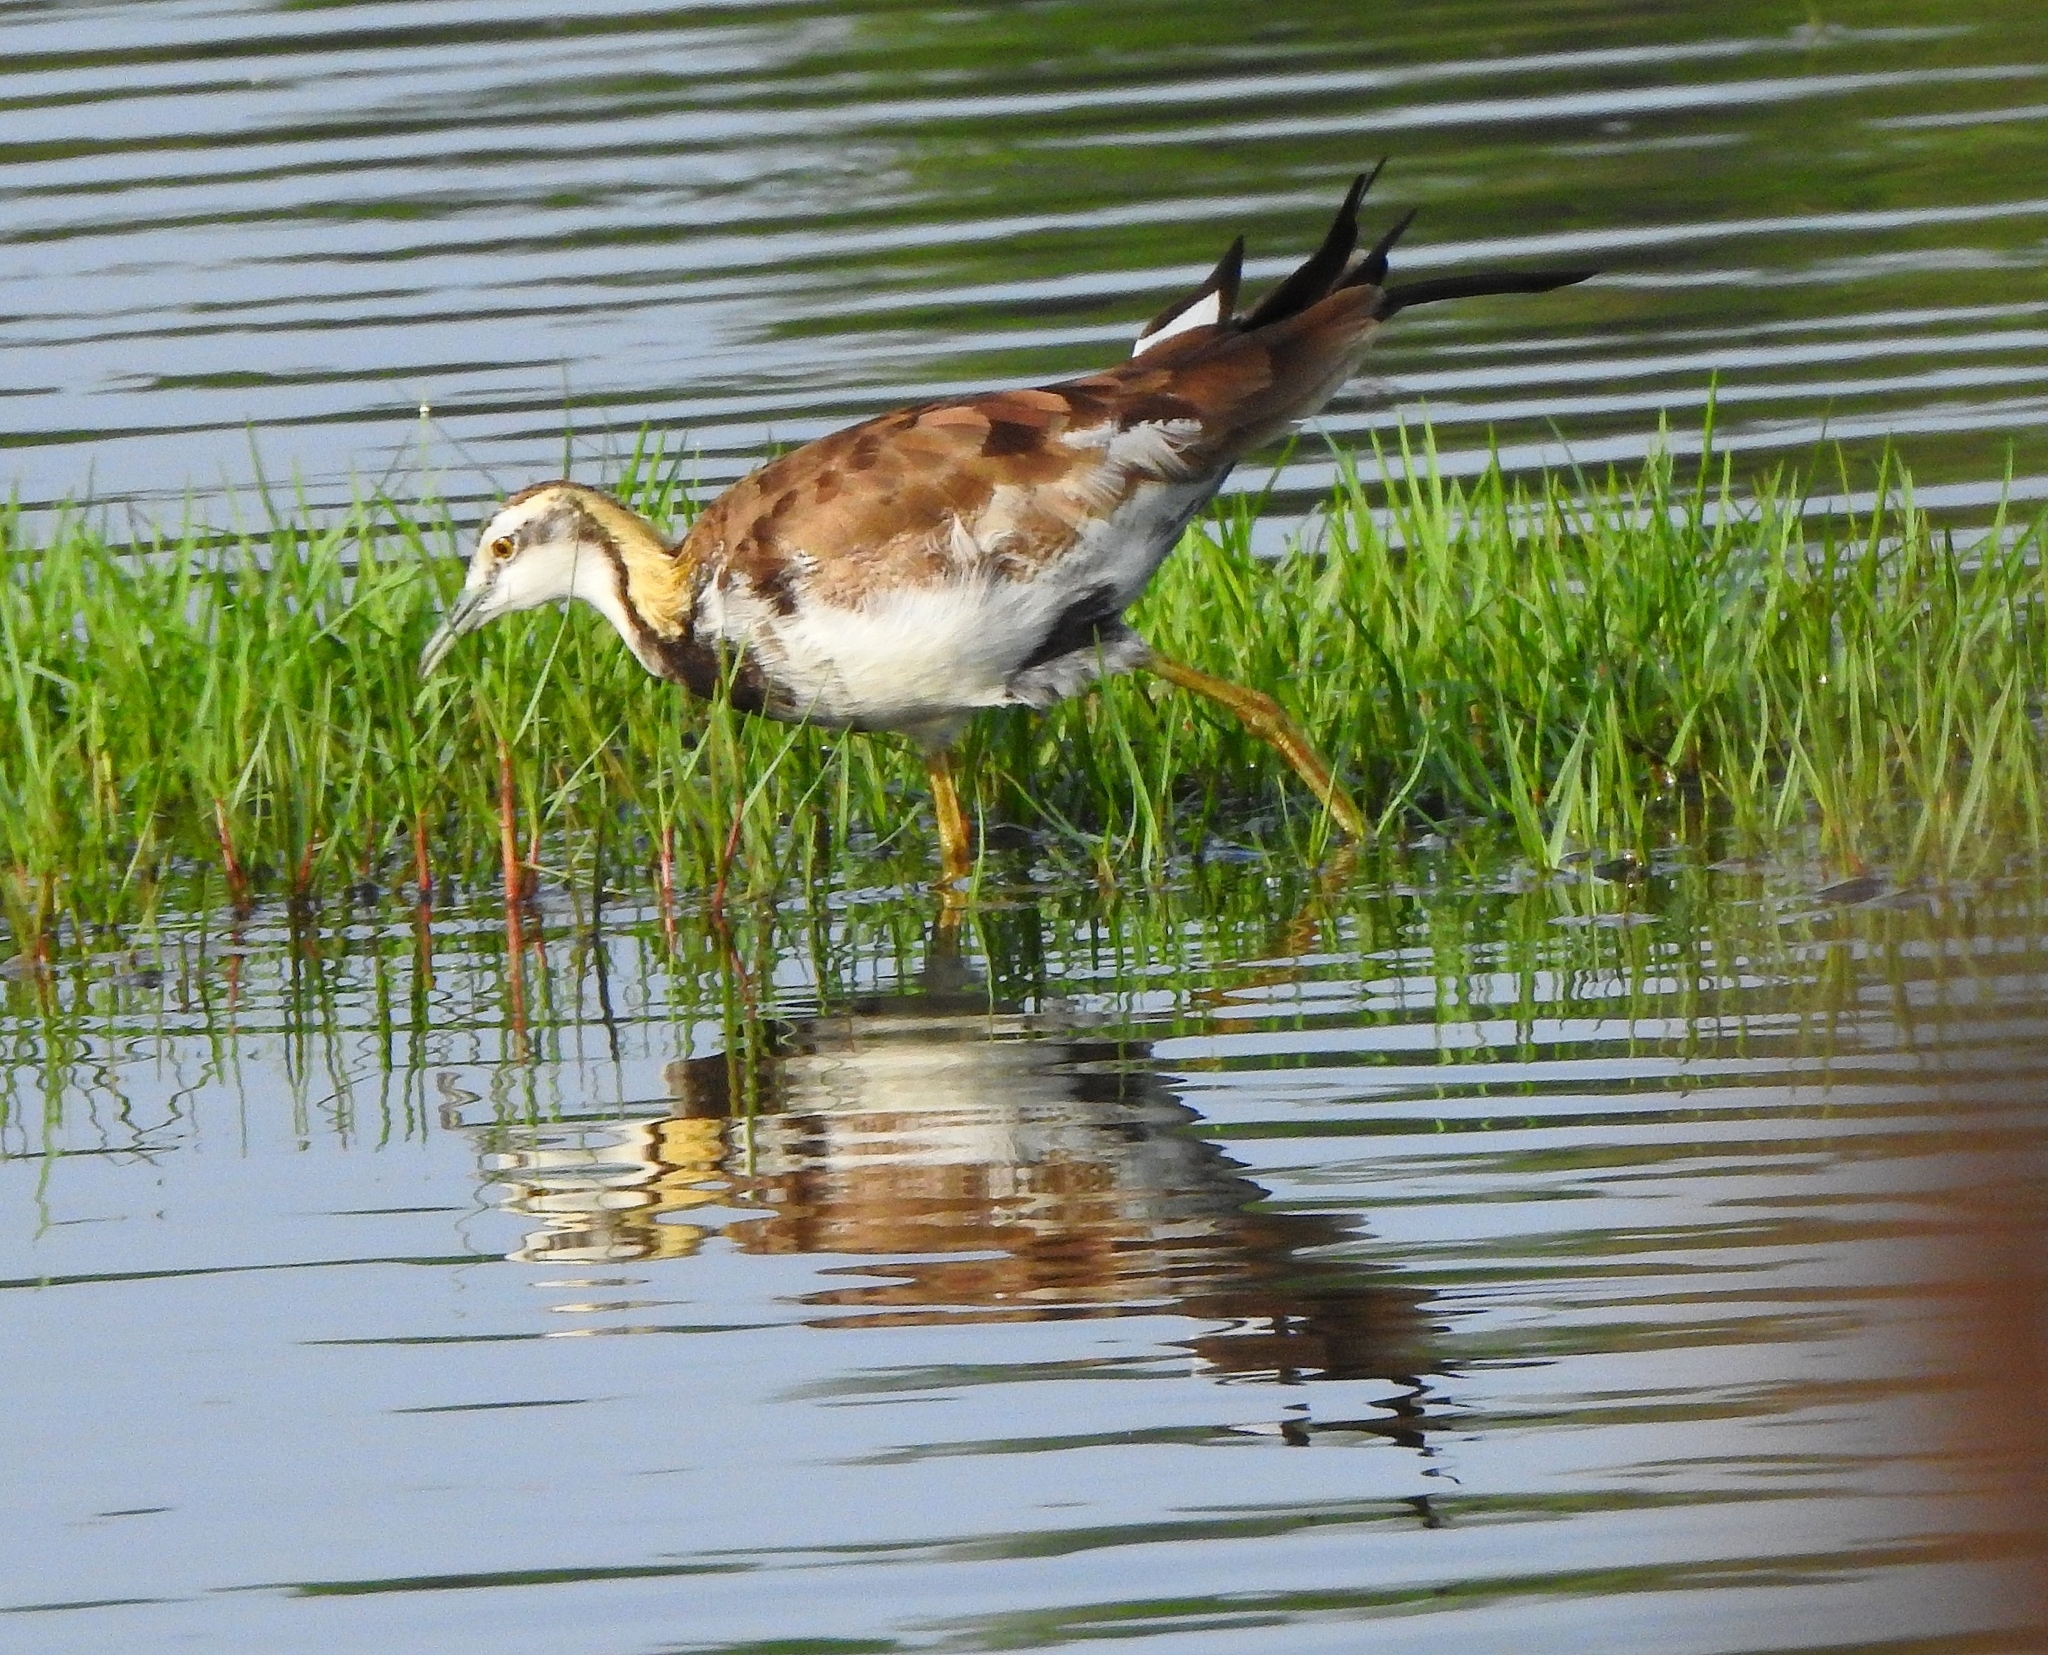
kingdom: Animalia
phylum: Chordata
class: Aves
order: Charadriiformes
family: Jacanidae
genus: Hydrophasianus
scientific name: Hydrophasianus chirurgus
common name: Pheasant-tailed jacana
